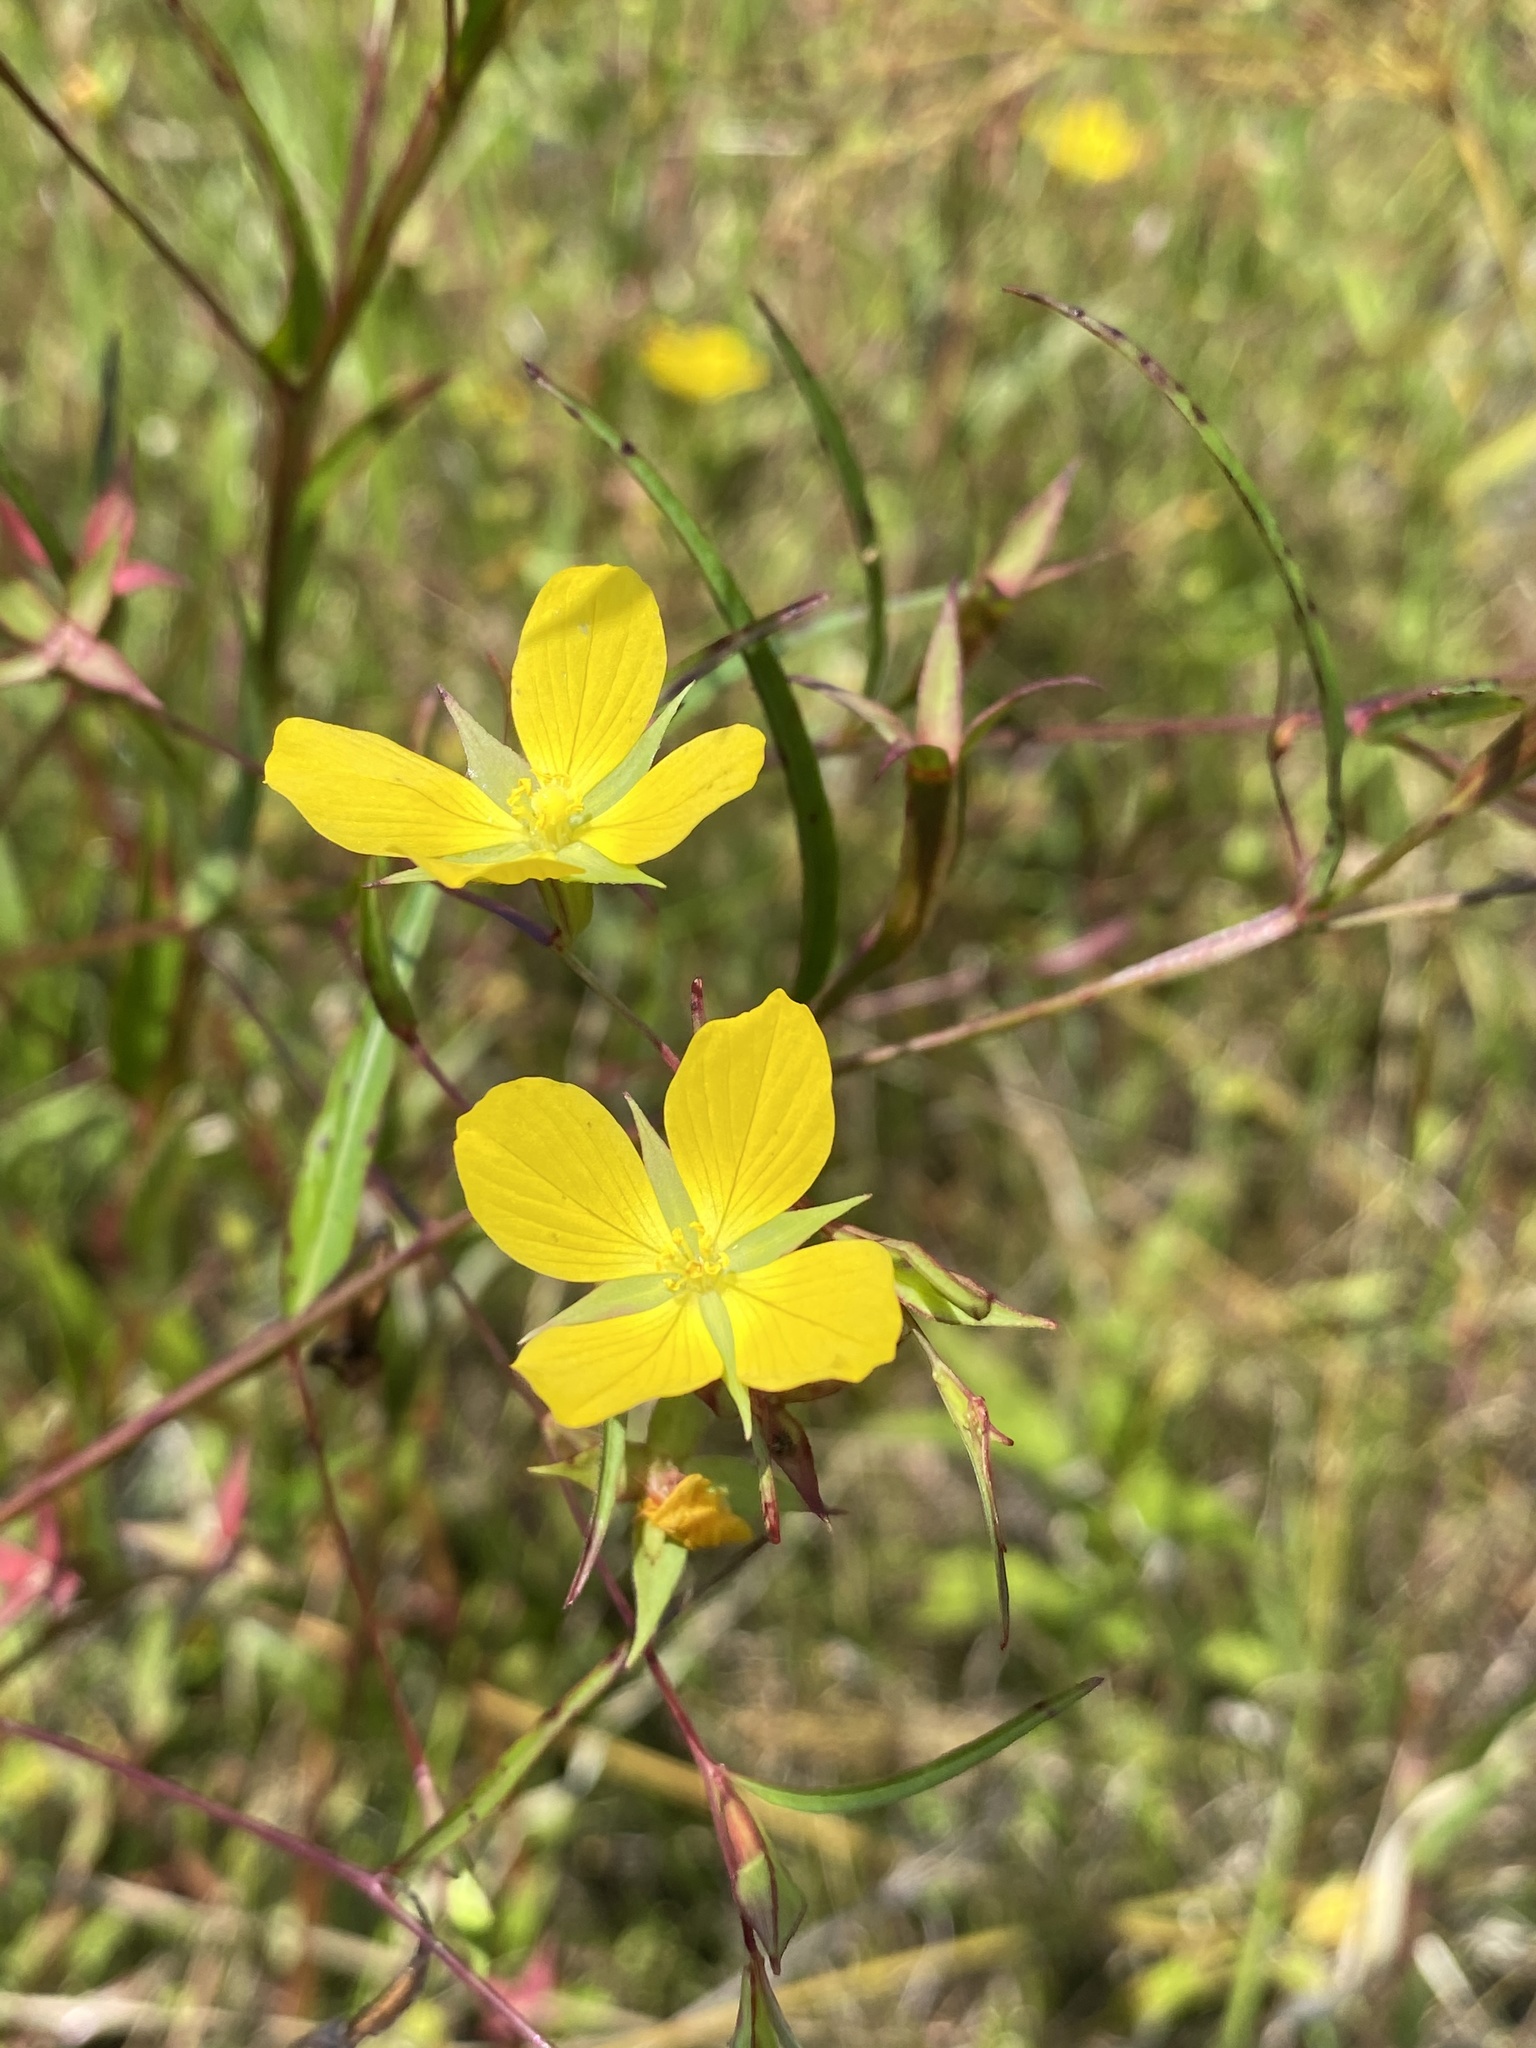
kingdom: Plantae
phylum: Tracheophyta
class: Magnoliopsida
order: Myrtales
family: Onagraceae
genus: Ludwigia
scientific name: Ludwigia linearis
